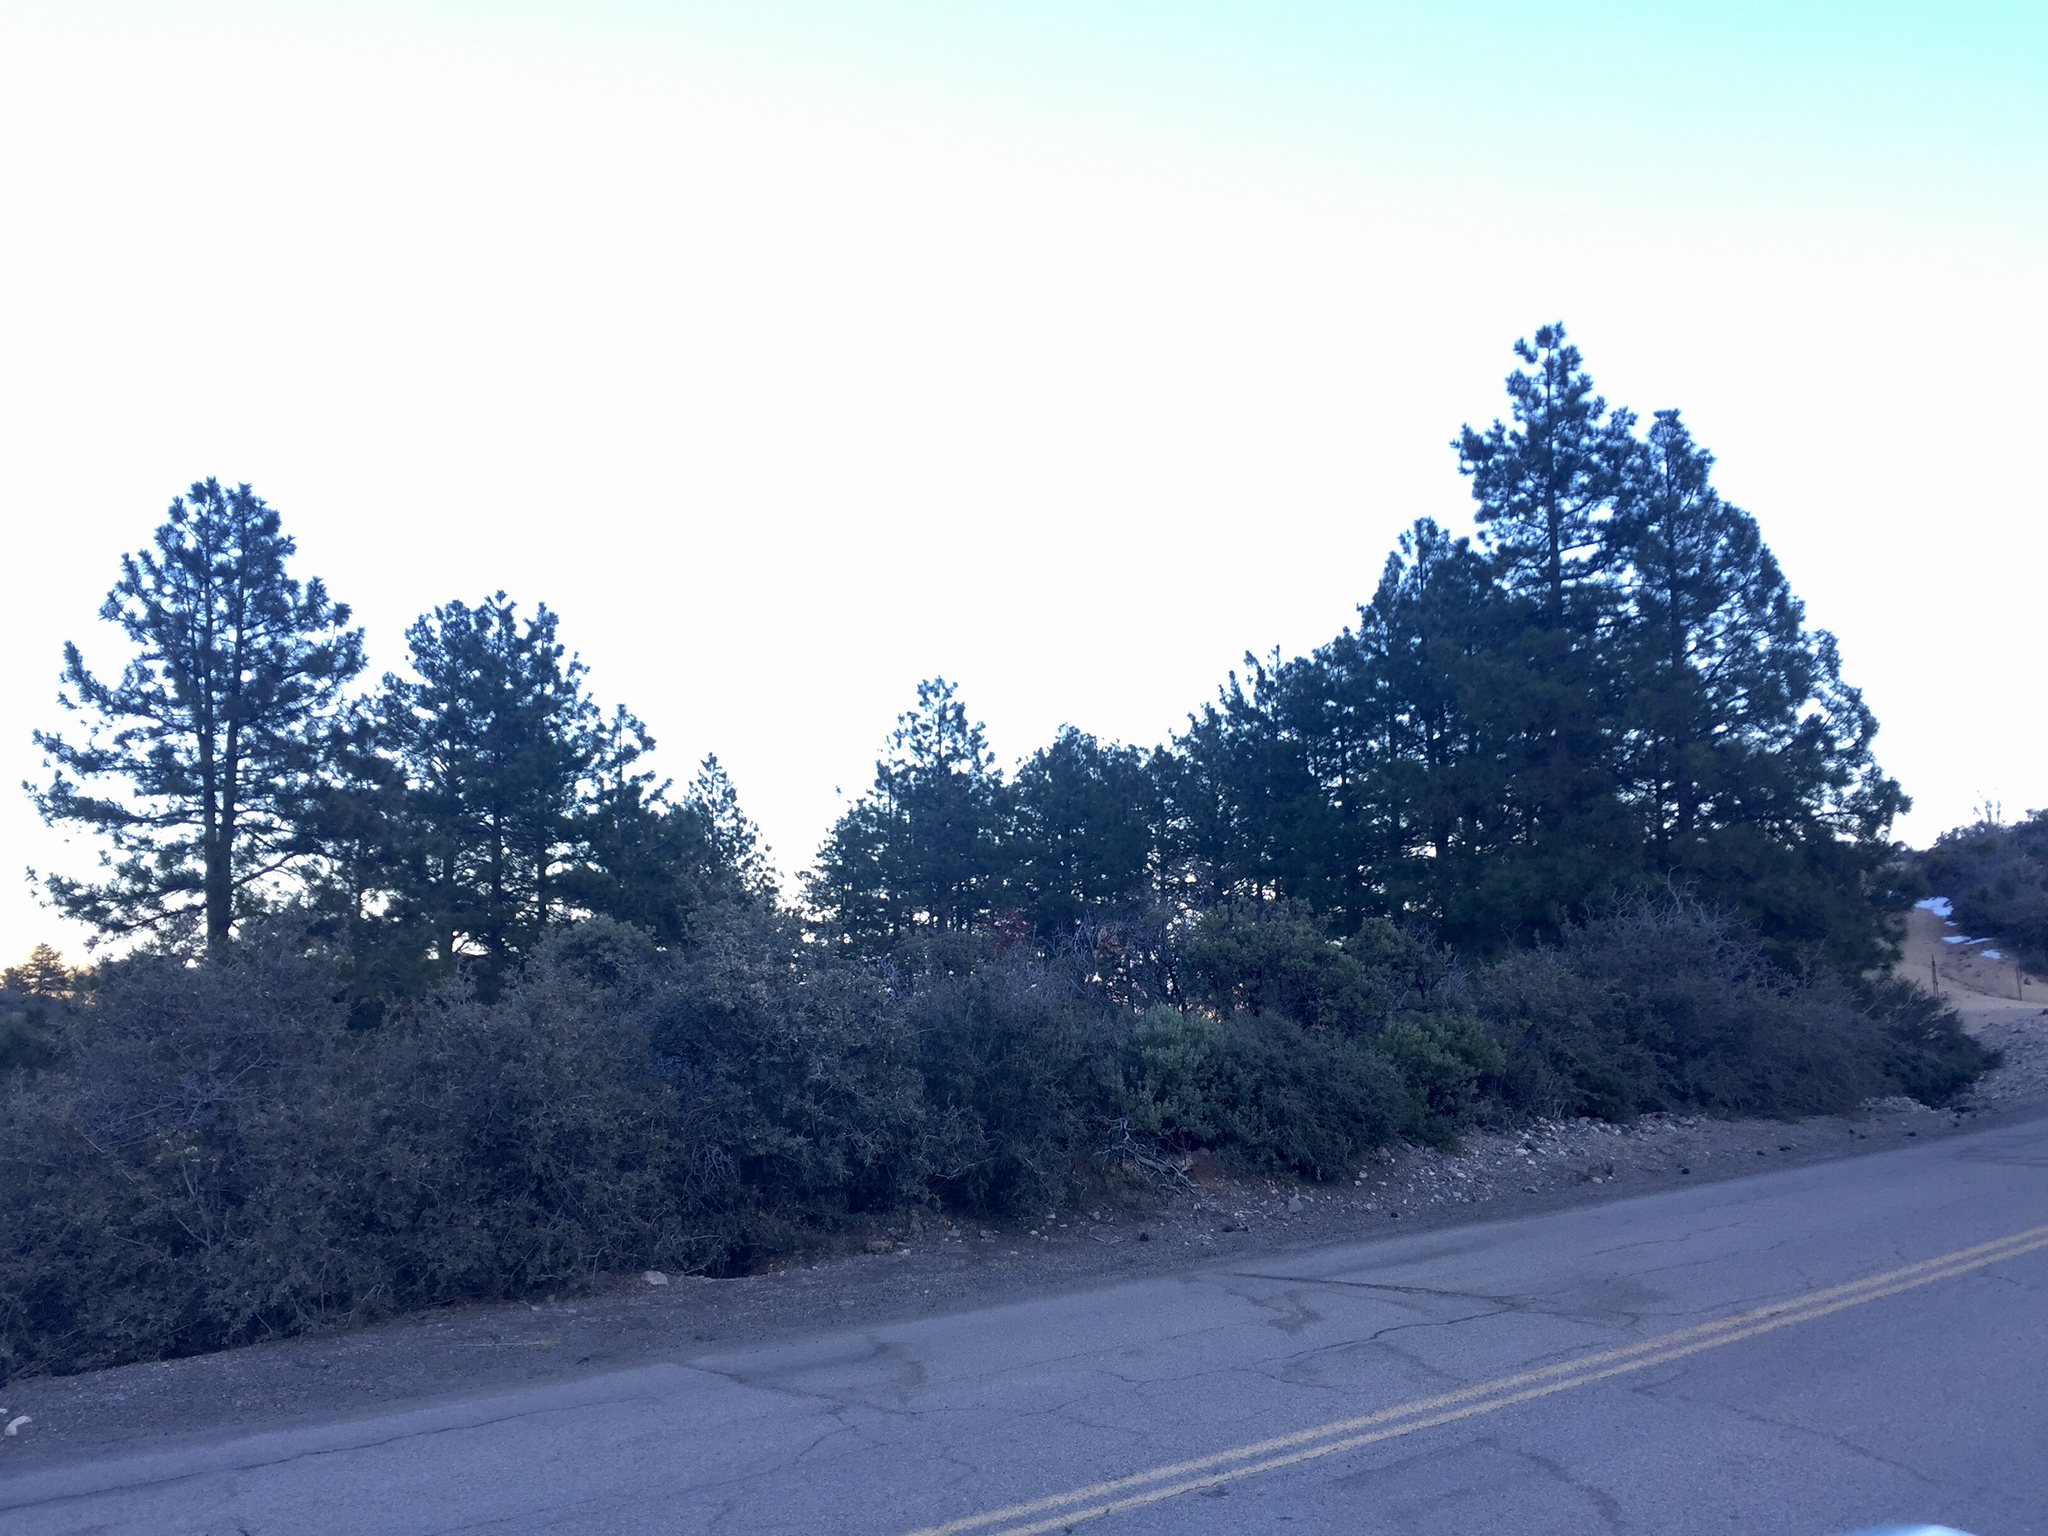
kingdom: Plantae
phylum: Tracheophyta
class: Pinopsida
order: Pinales
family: Pinaceae
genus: Pinus
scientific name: Pinus ponderosa
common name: Western yellow-pine
